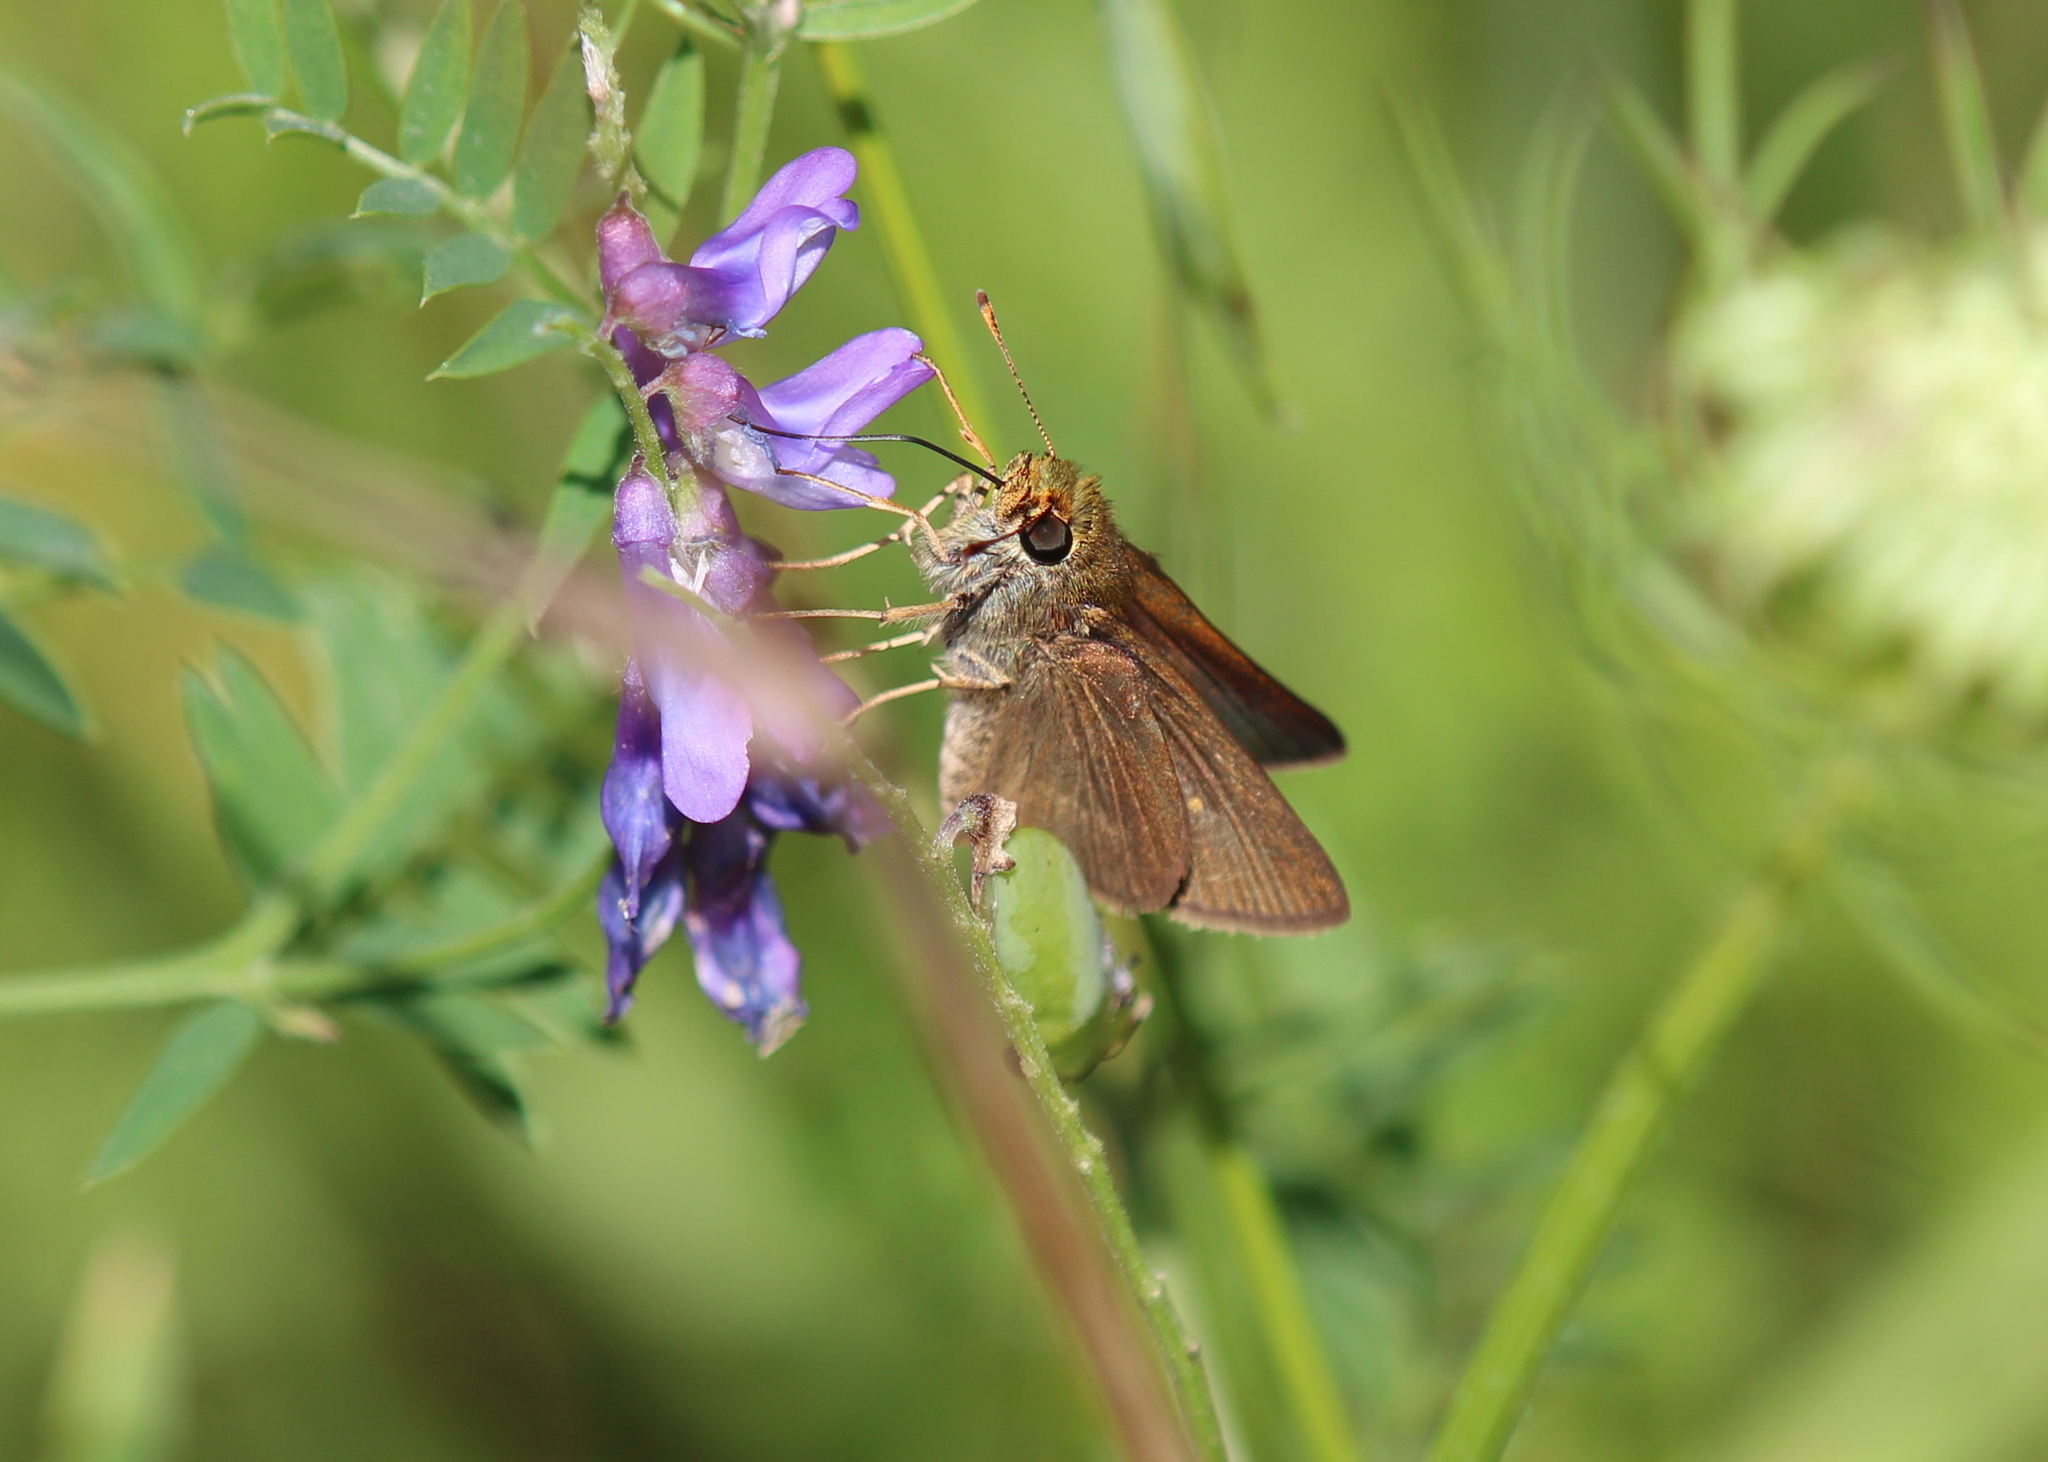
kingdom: Animalia
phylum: Arthropoda
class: Insecta
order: Lepidoptera
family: Hesperiidae
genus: Euphyes
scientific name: Euphyes vestris
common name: Dun skipper
